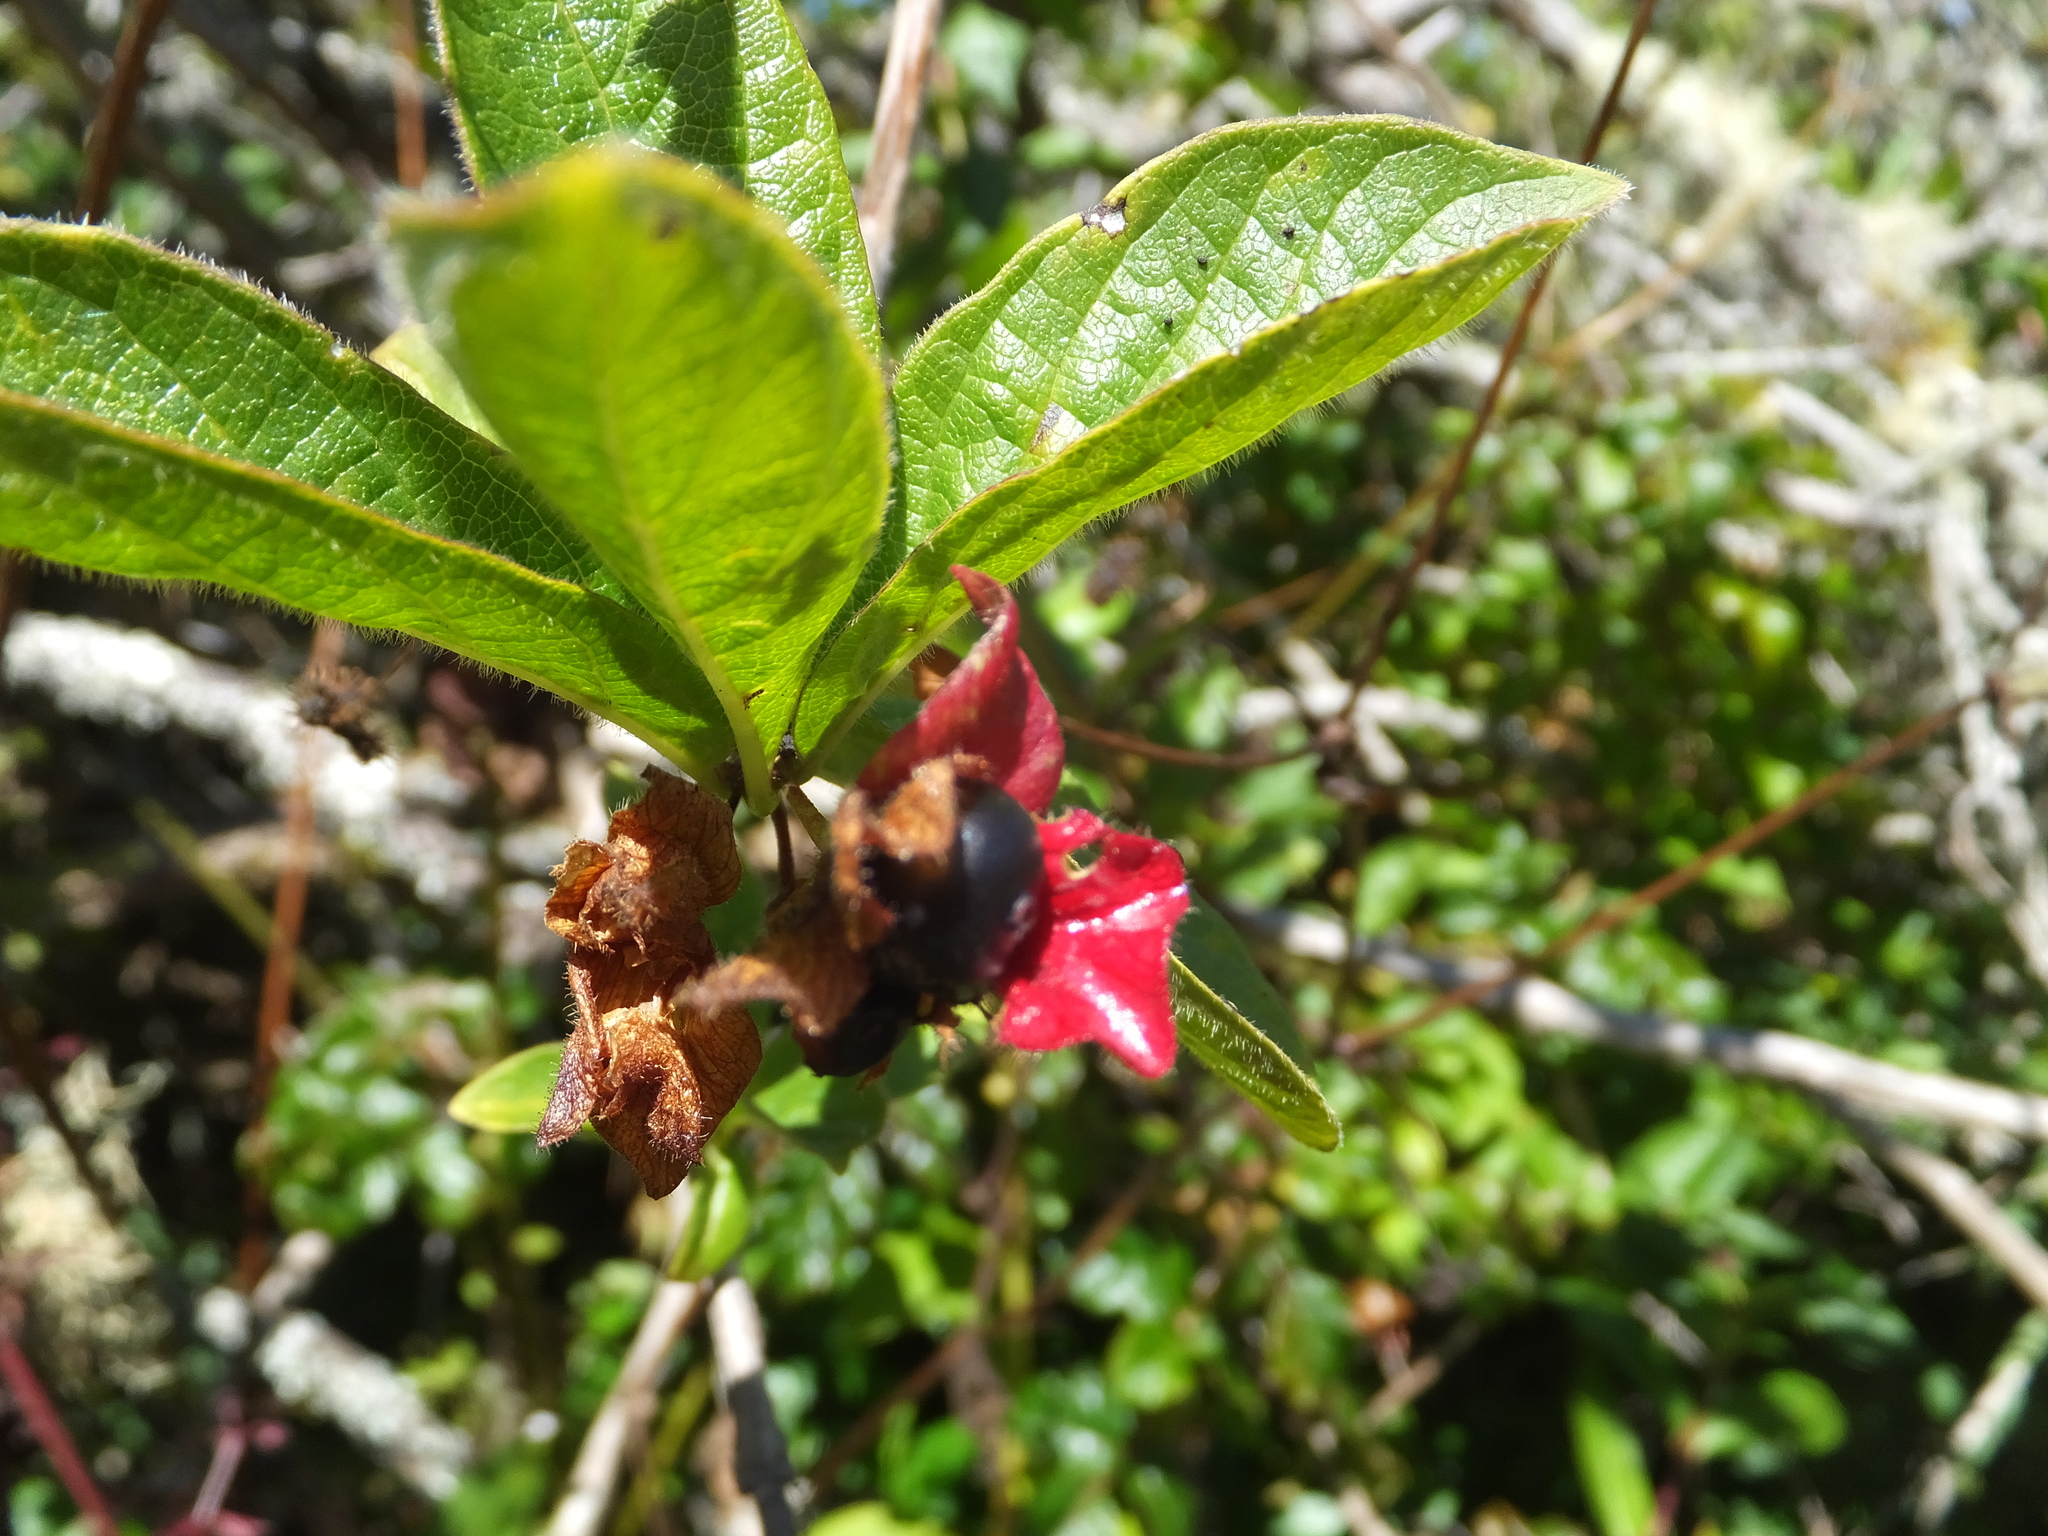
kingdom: Plantae
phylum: Tracheophyta
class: Magnoliopsida
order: Dipsacales
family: Caprifoliaceae
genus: Lonicera
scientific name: Lonicera involucrata
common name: Californian honeysuckle
